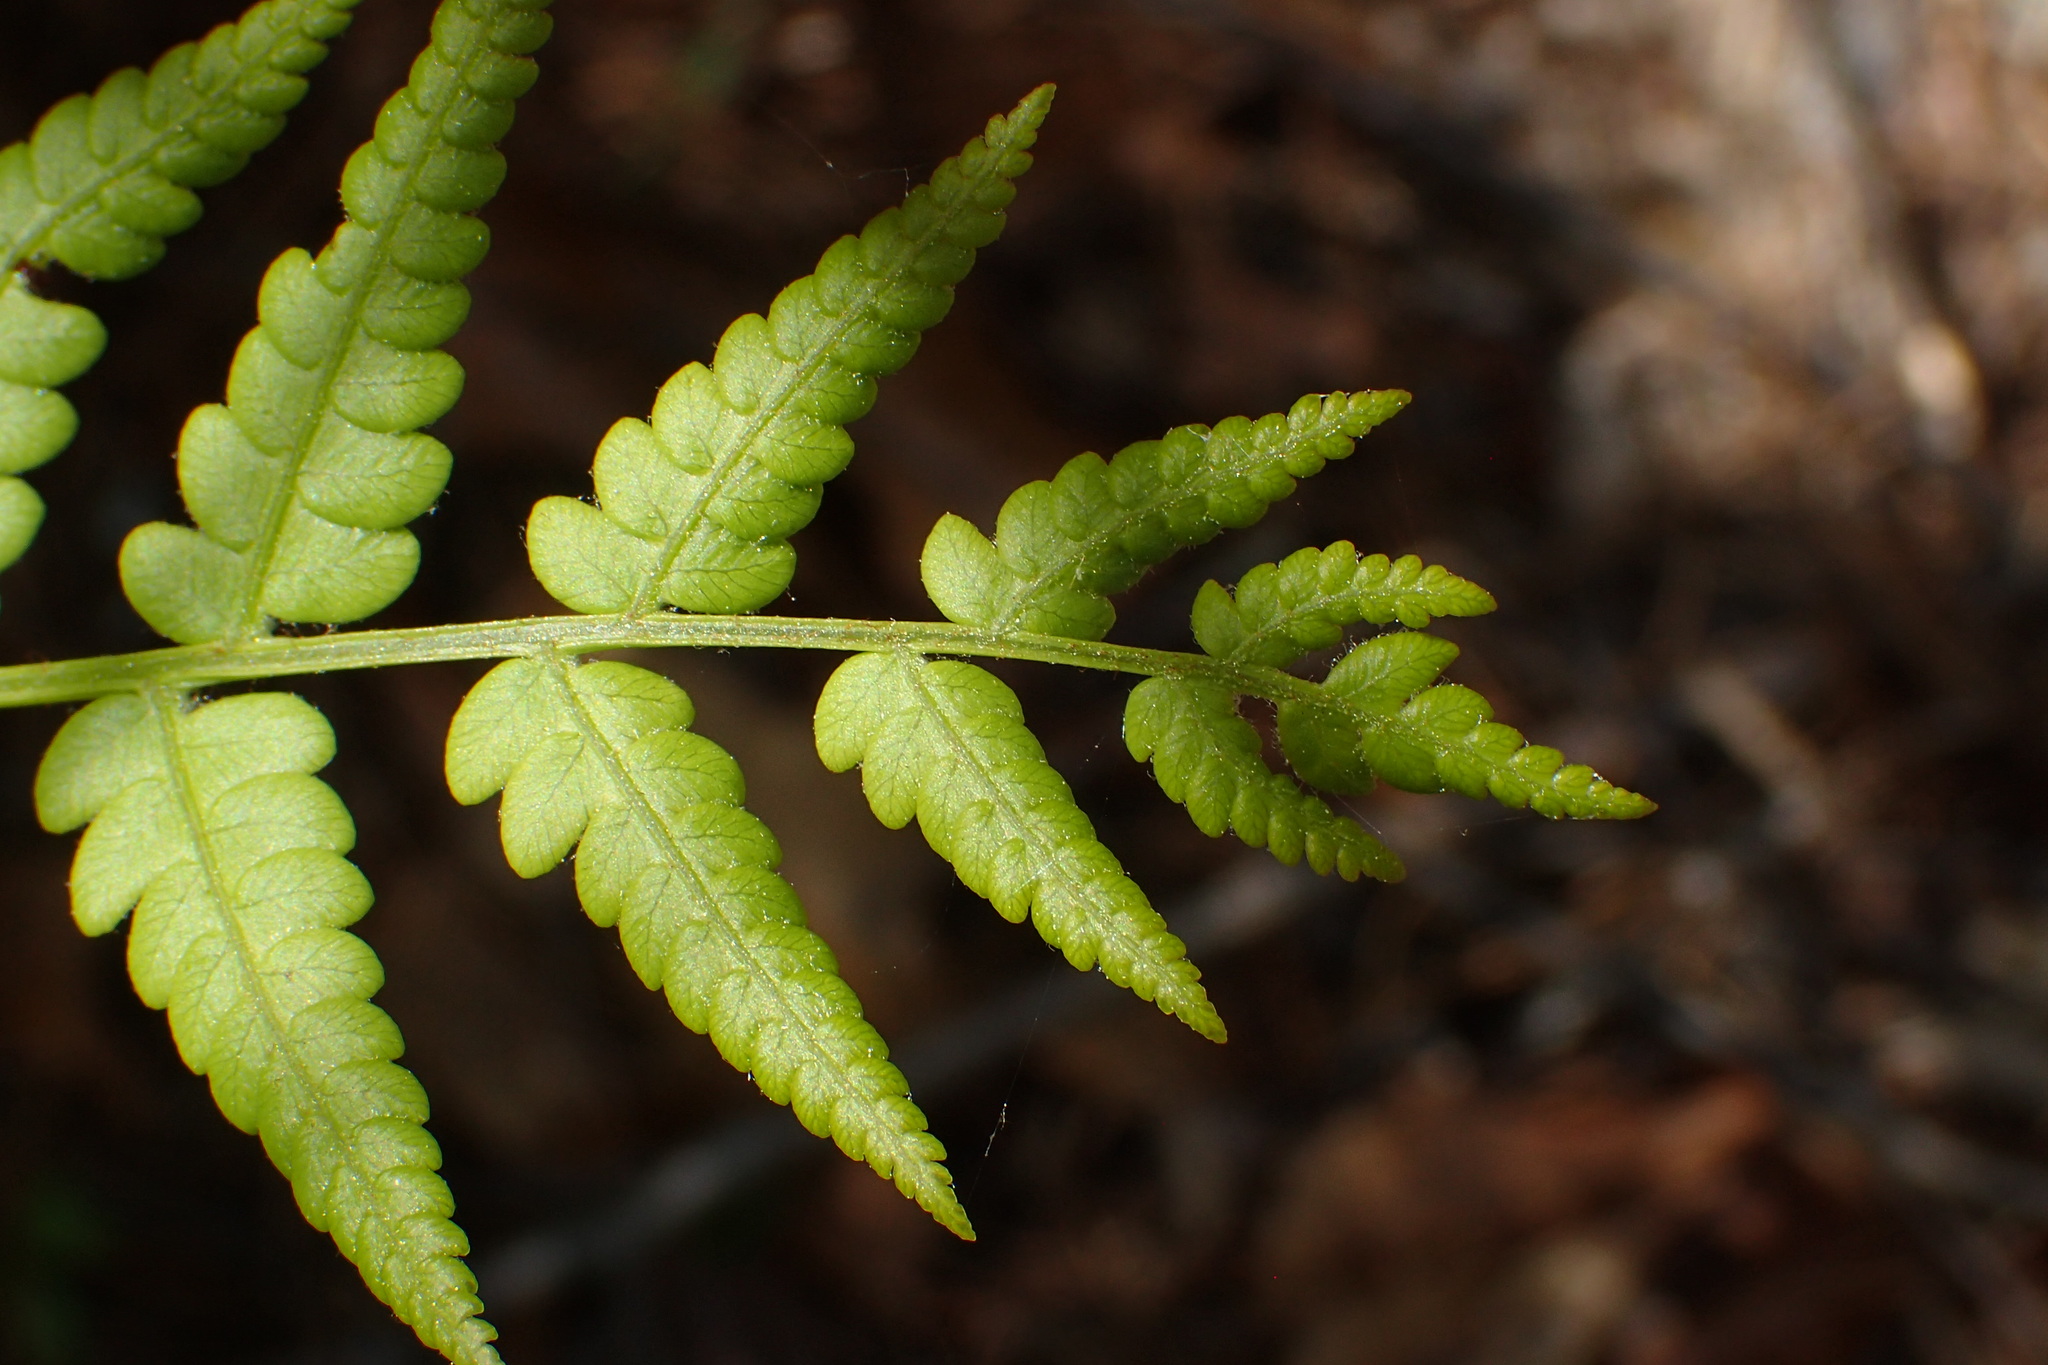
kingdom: Plantae
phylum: Tracheophyta
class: Polypodiopsida
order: Osmundales
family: Osmundaceae
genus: Osmundastrum
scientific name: Osmundastrum cinnamomeum
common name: Cinnamon fern
